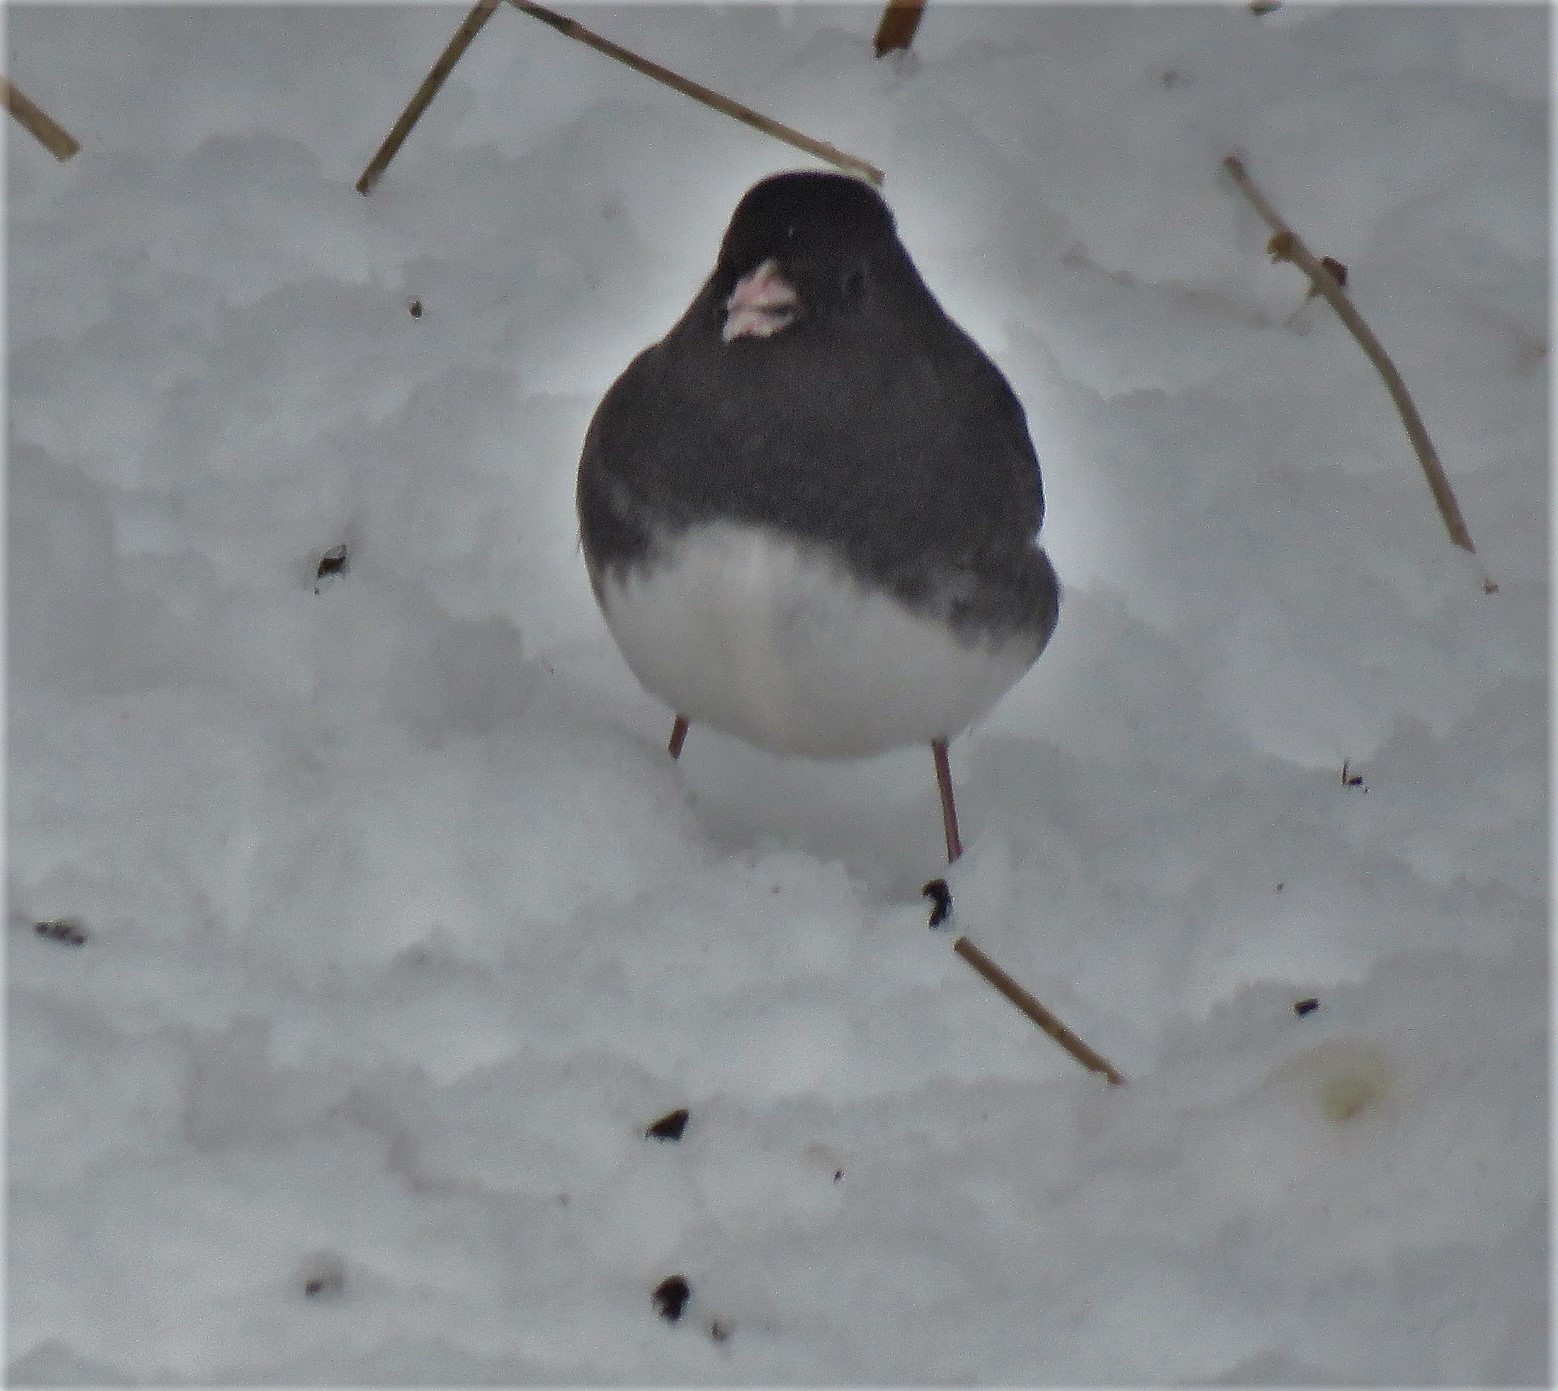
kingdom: Animalia
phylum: Chordata
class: Aves
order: Passeriformes
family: Passerellidae
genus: Junco
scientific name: Junco hyemalis
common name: Dark-eyed junco
